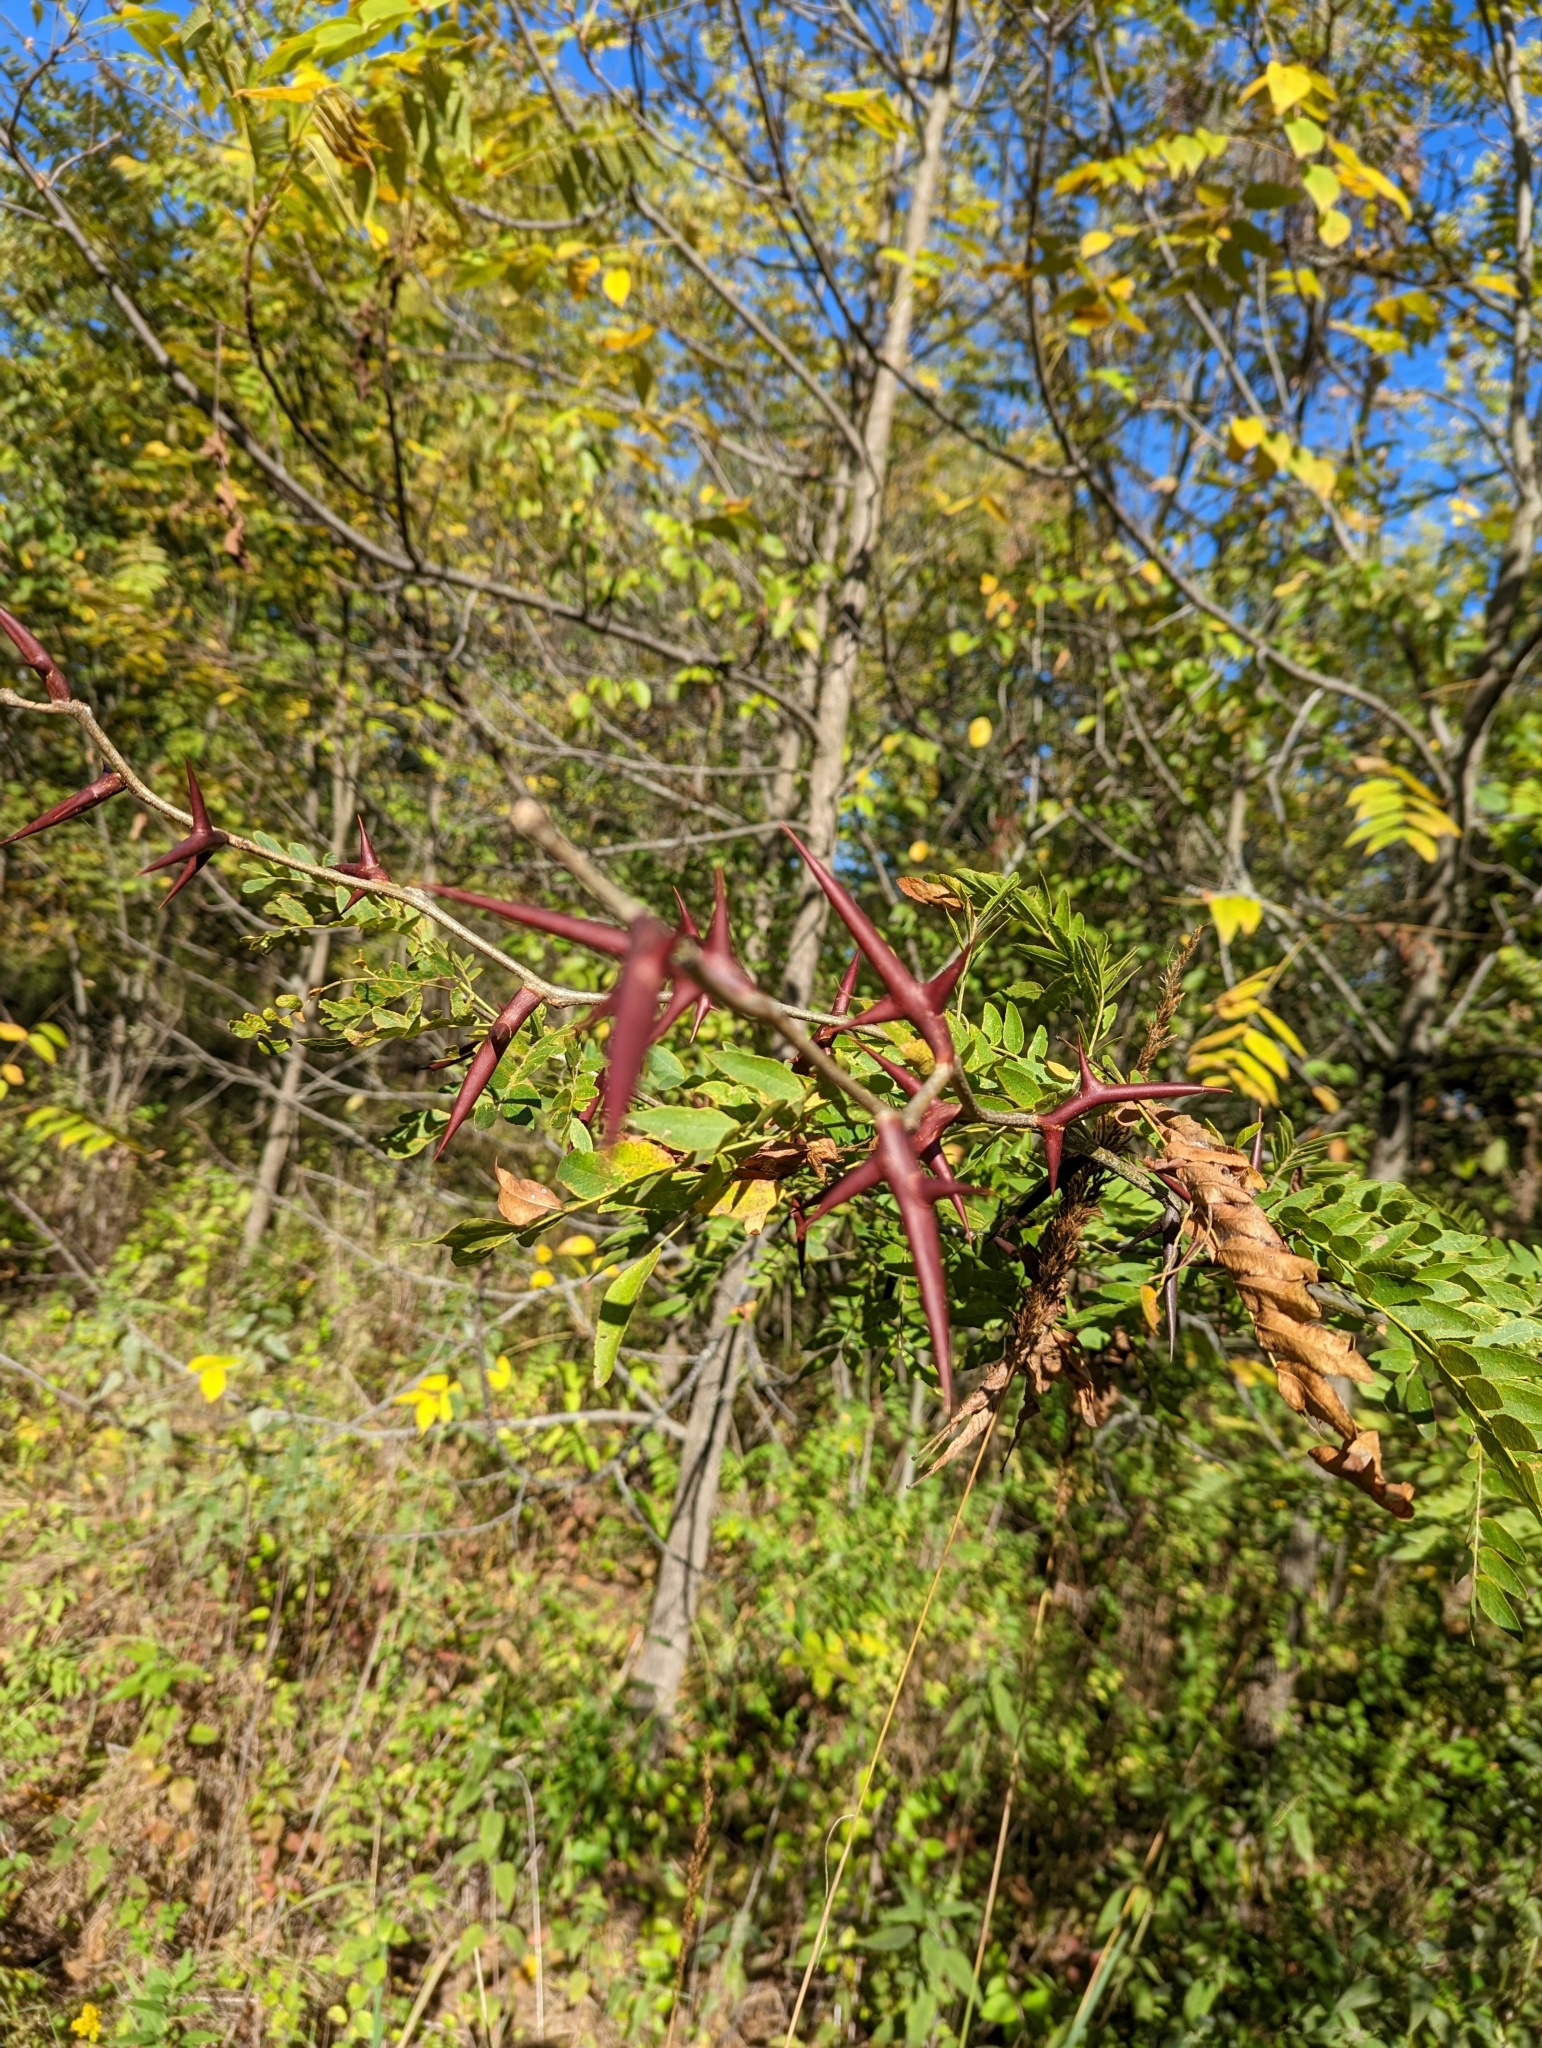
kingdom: Plantae
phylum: Tracheophyta
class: Magnoliopsida
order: Fabales
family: Fabaceae
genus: Gleditsia
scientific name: Gleditsia triacanthos
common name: Common honeylocust
